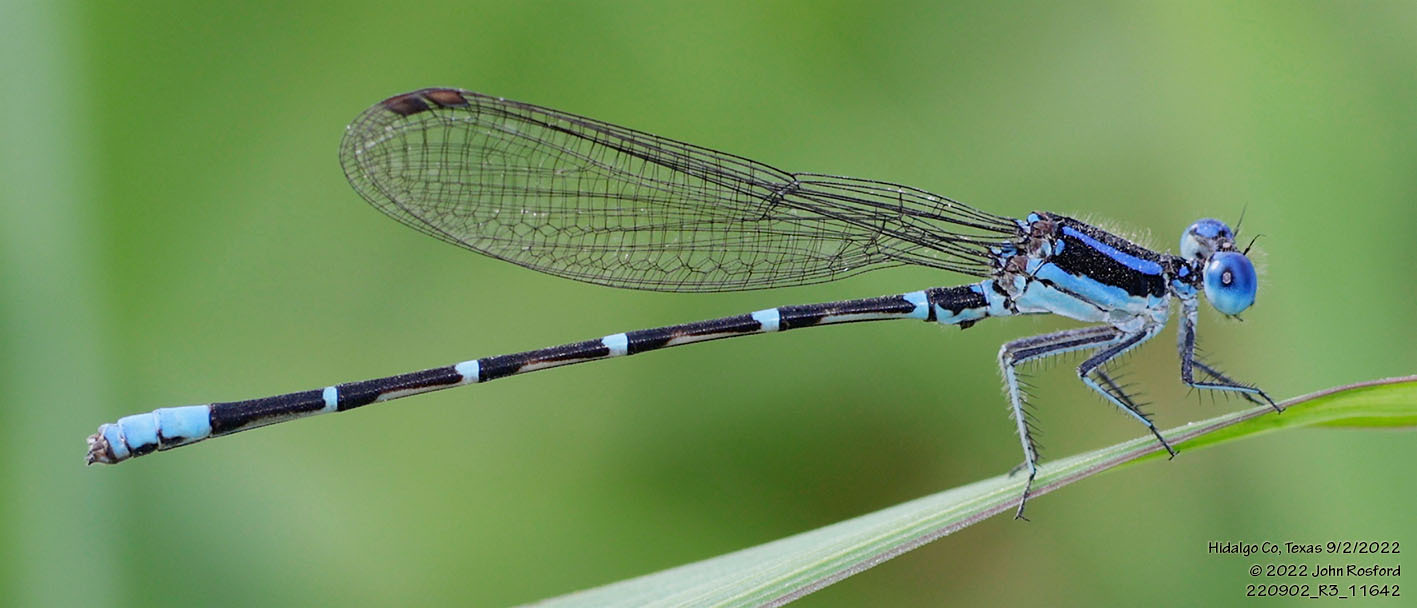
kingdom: Animalia
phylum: Arthropoda
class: Insecta
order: Odonata
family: Coenagrionidae
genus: Argia
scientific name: Argia sedula
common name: Blue-ringed dancer
